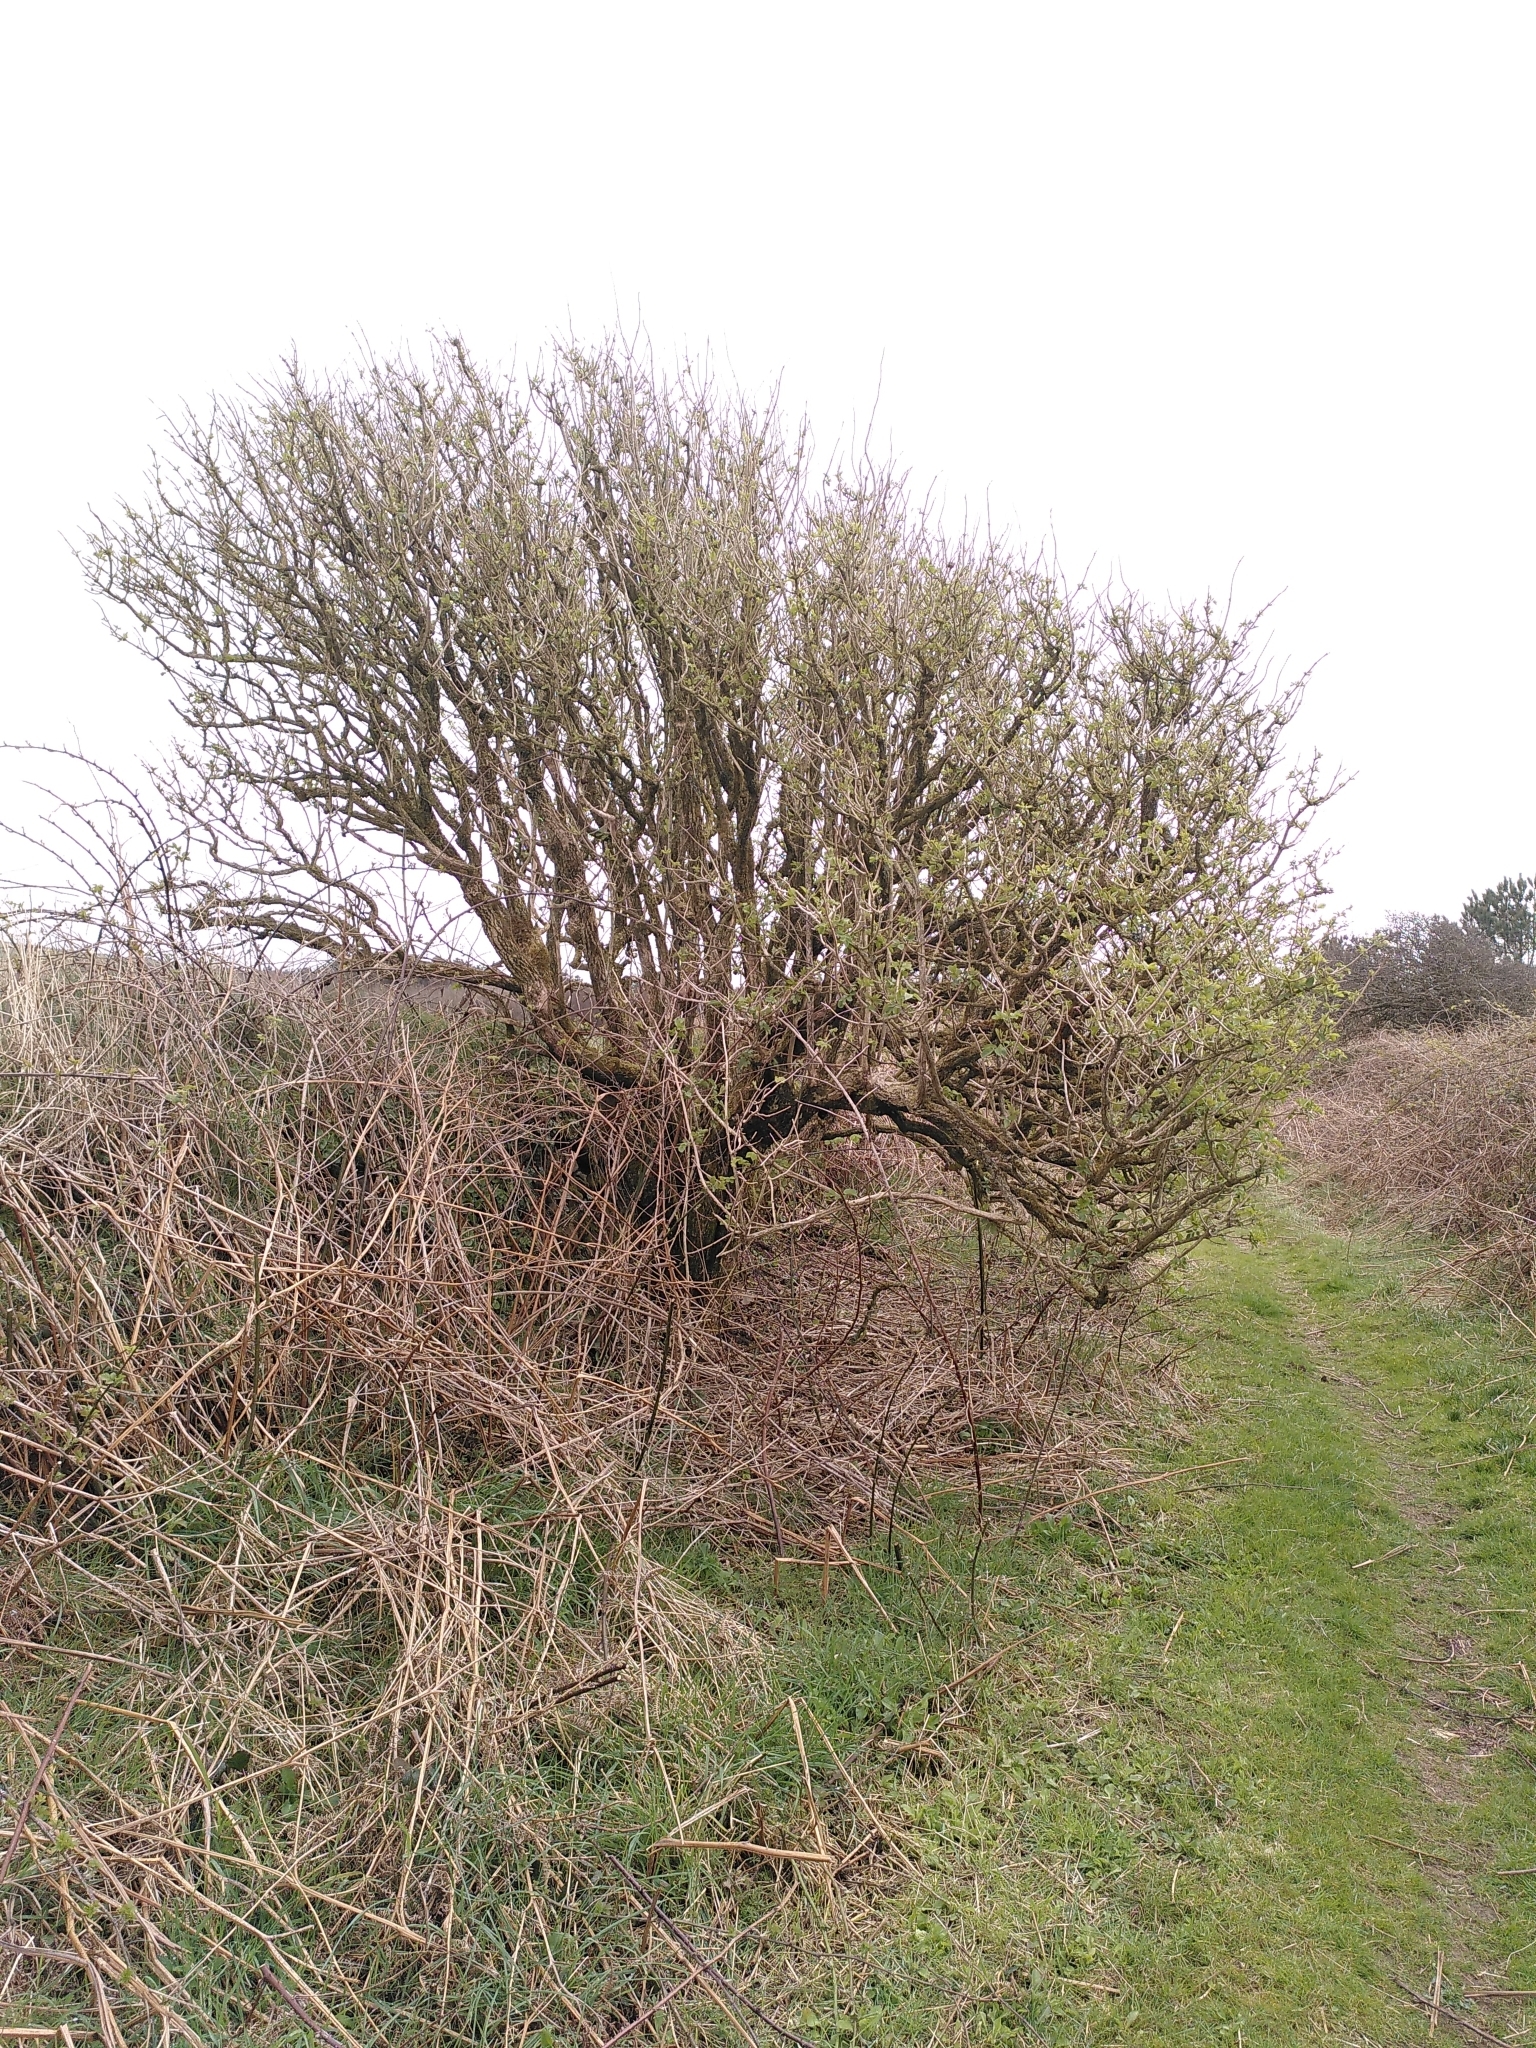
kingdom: Plantae
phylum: Tracheophyta
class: Magnoliopsida
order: Dipsacales
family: Viburnaceae
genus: Sambucus
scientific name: Sambucus nigra
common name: Elder
